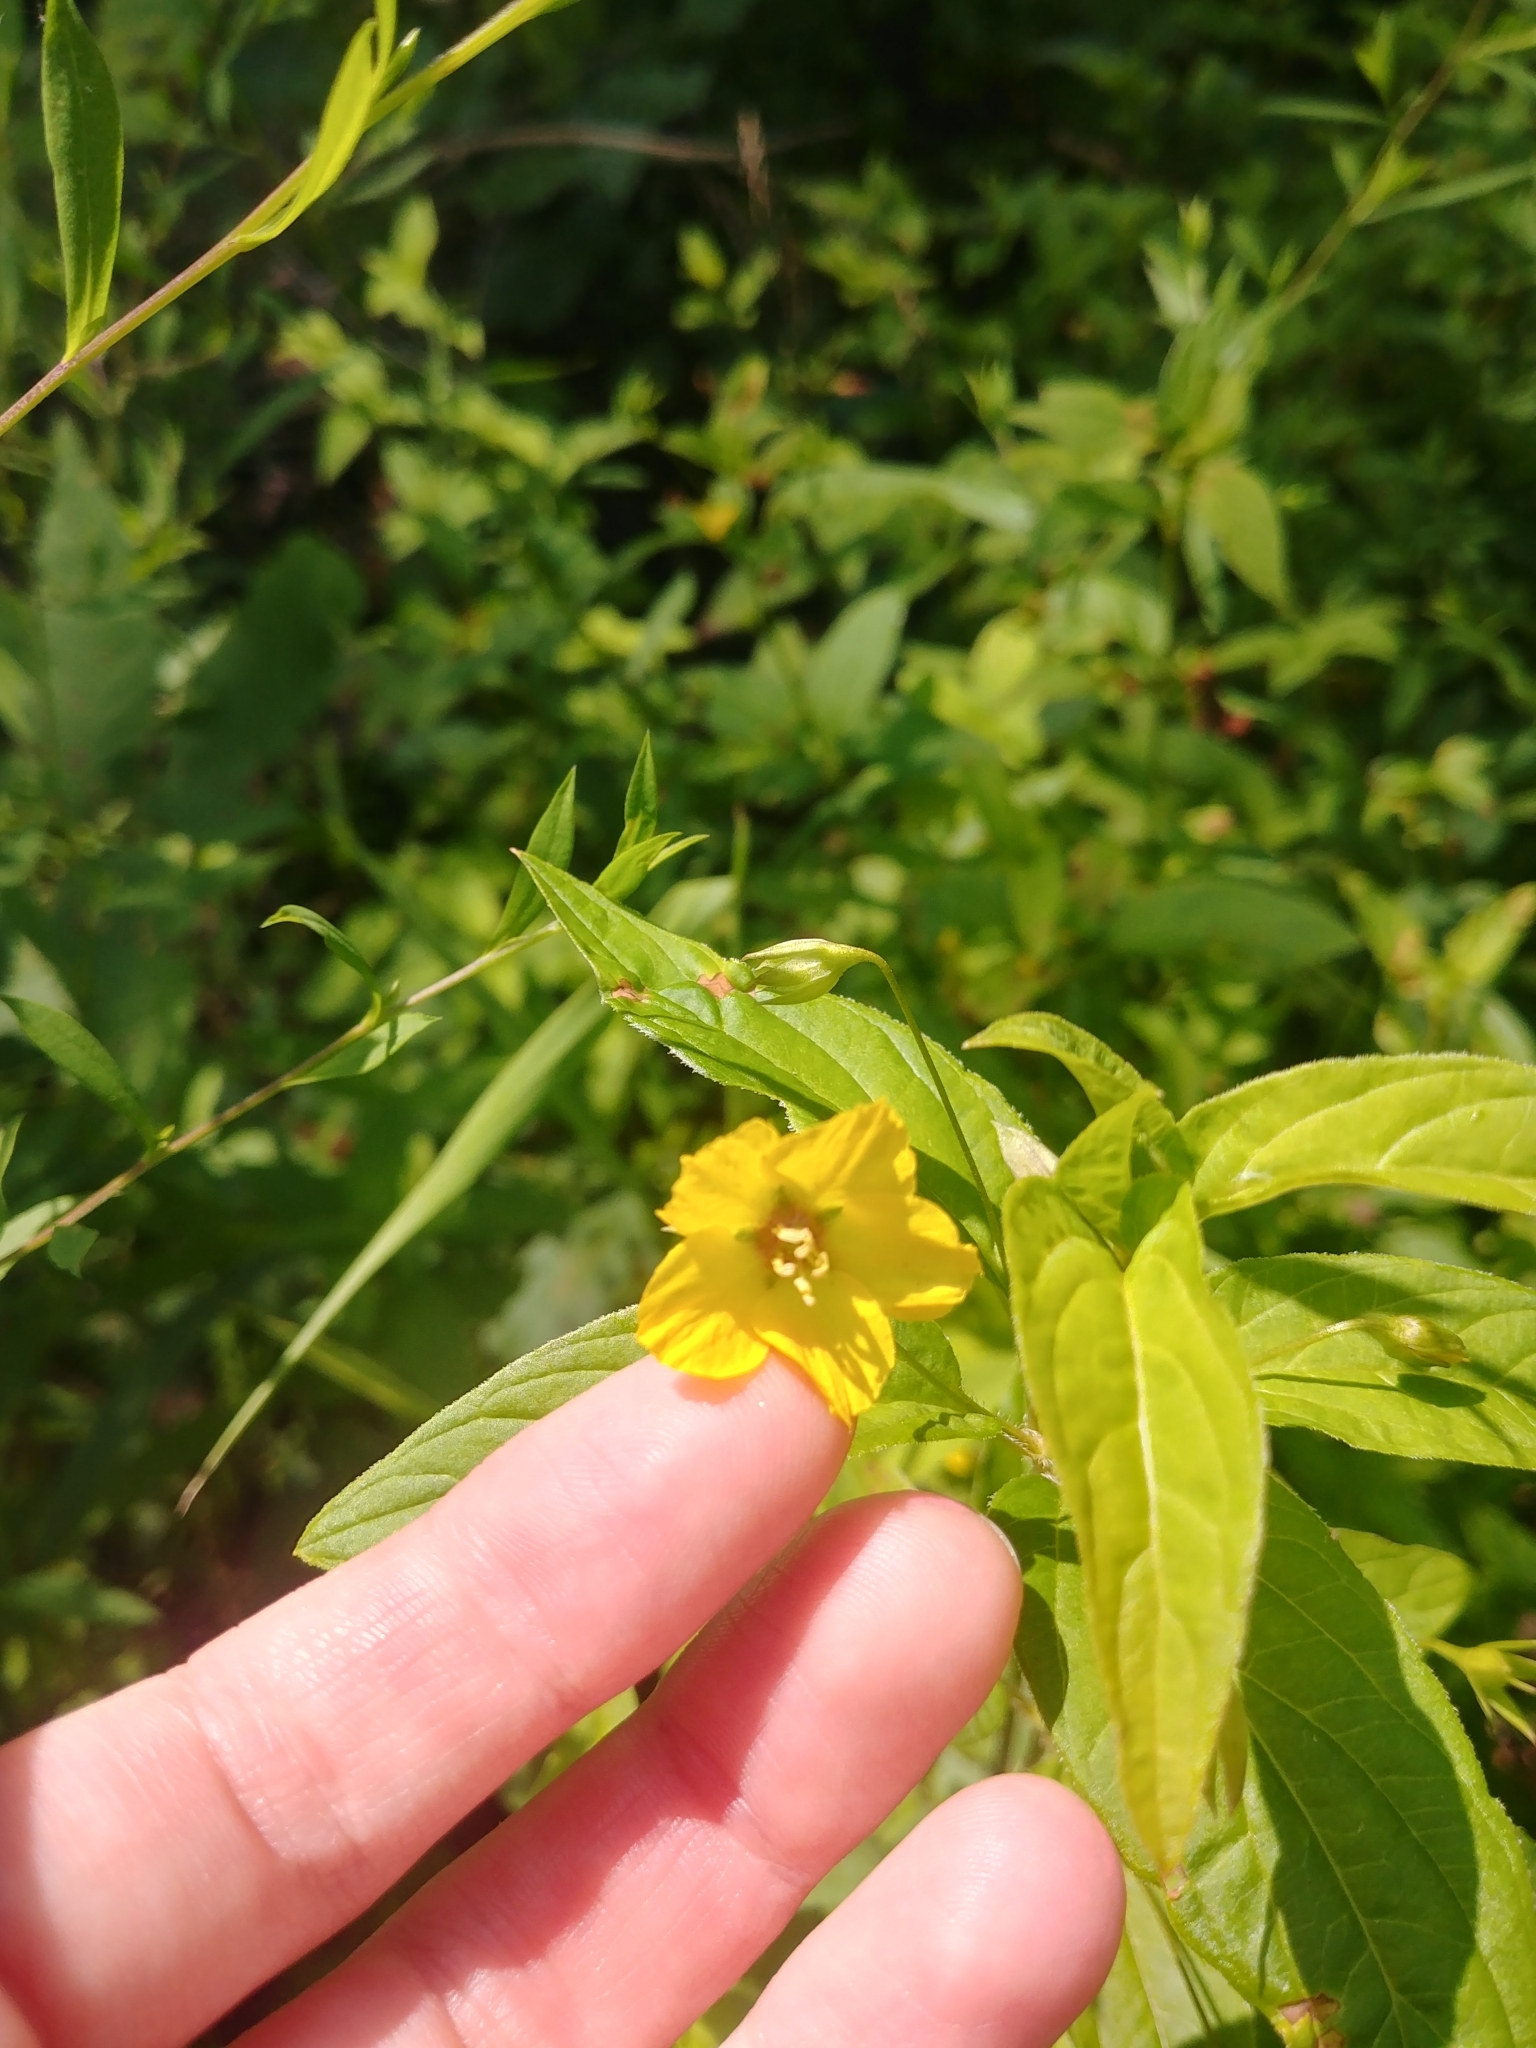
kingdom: Plantae
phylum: Tracheophyta
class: Magnoliopsida
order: Ericales
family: Primulaceae
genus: Lysimachia
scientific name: Lysimachia ciliata
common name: Fringed loosestrife
